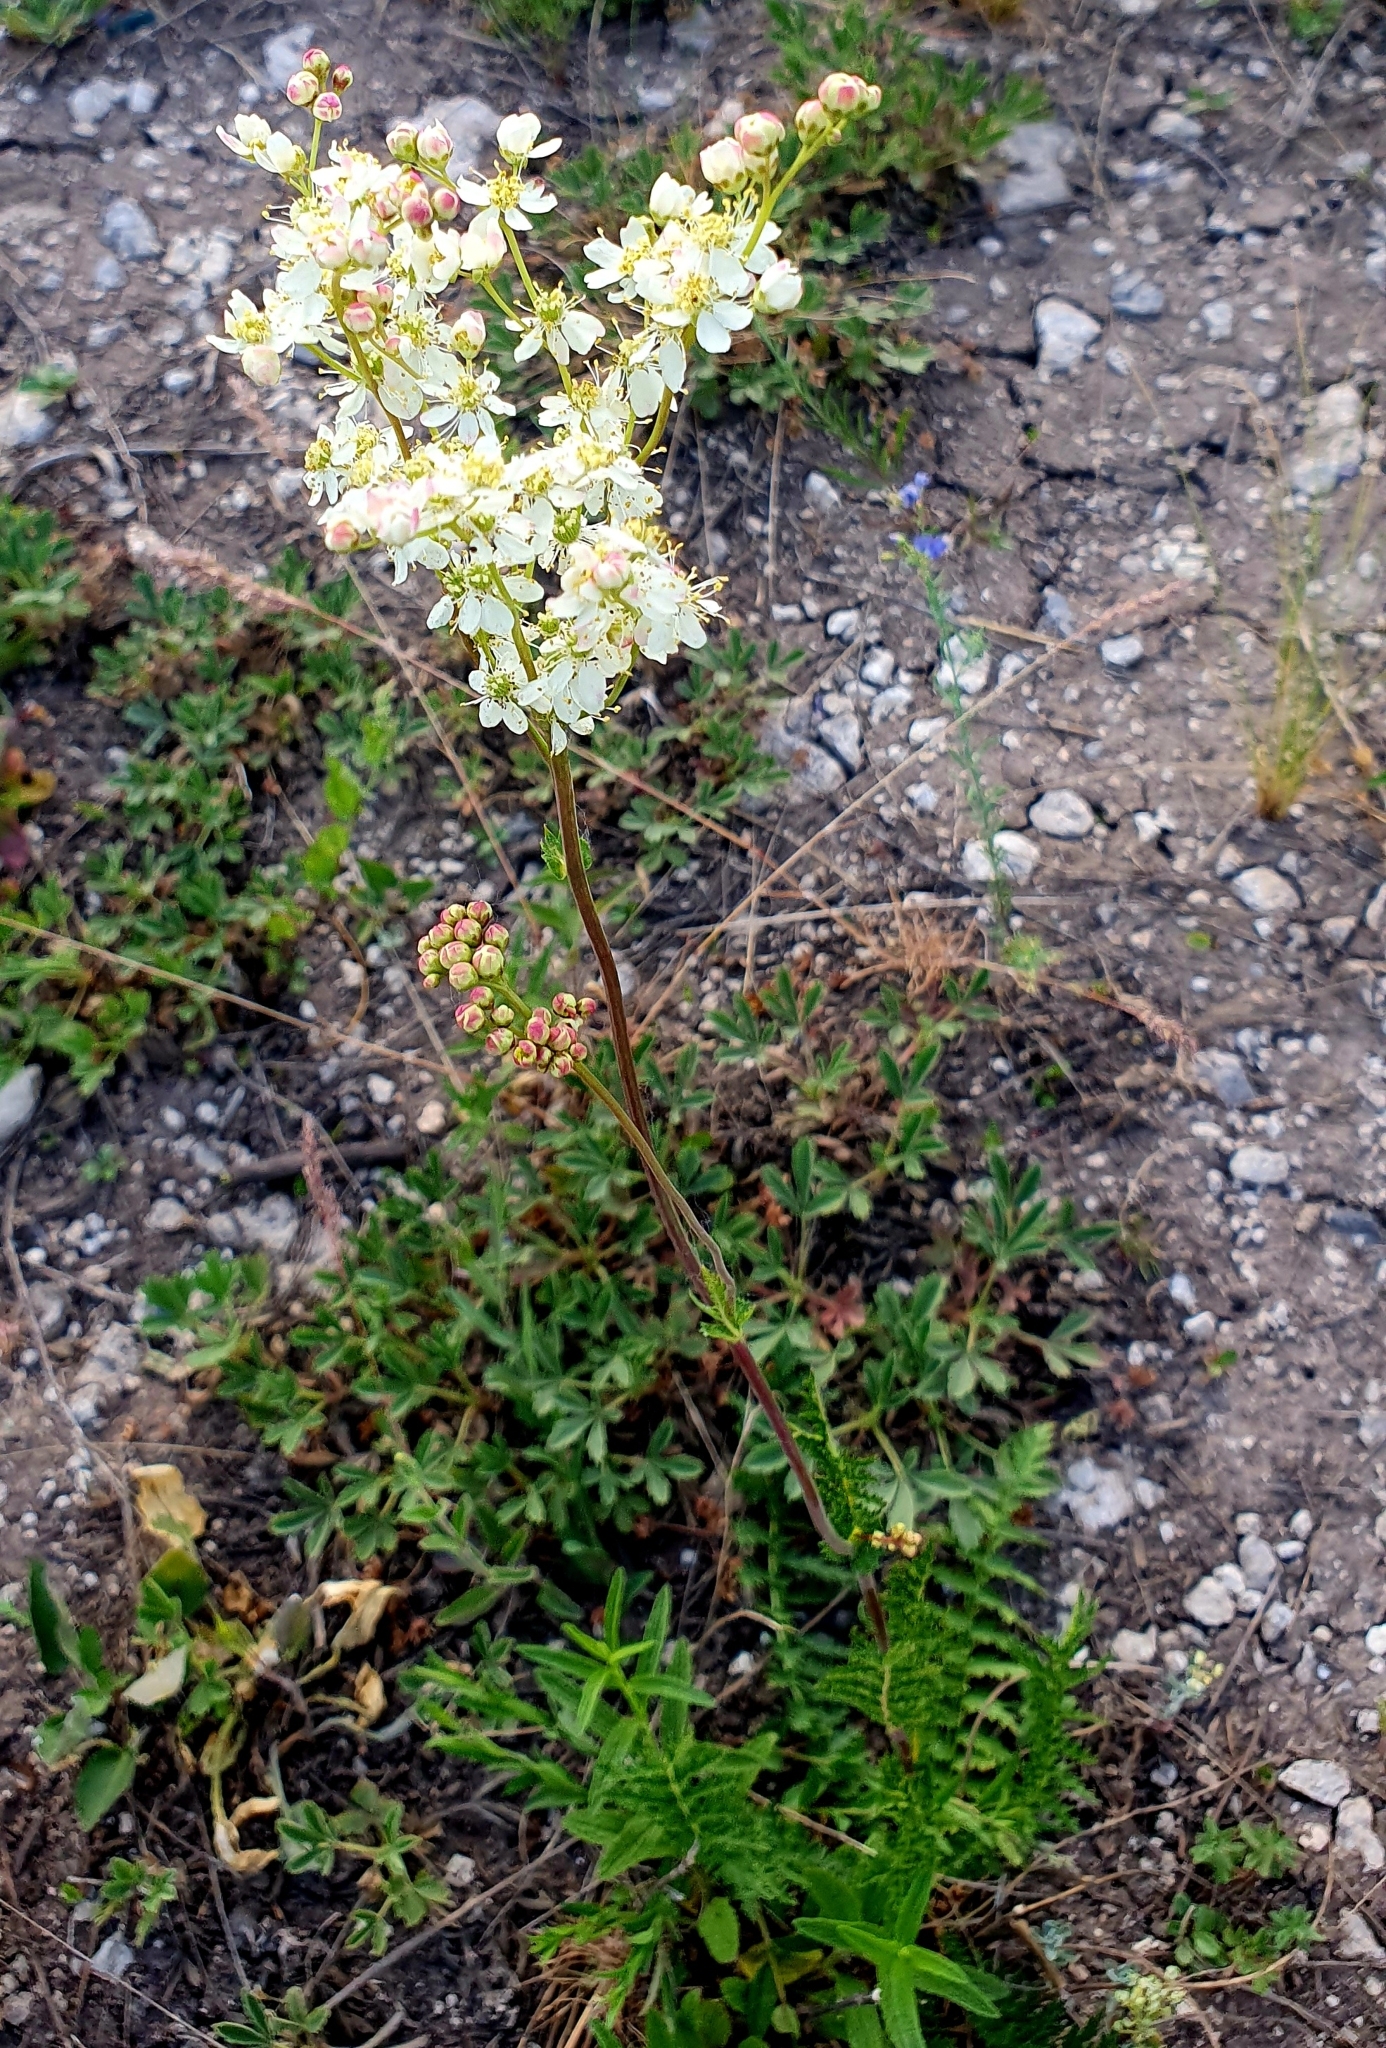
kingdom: Plantae
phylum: Tracheophyta
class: Magnoliopsida
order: Rosales
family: Rosaceae
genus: Filipendula
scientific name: Filipendula vulgaris
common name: Dropwort
